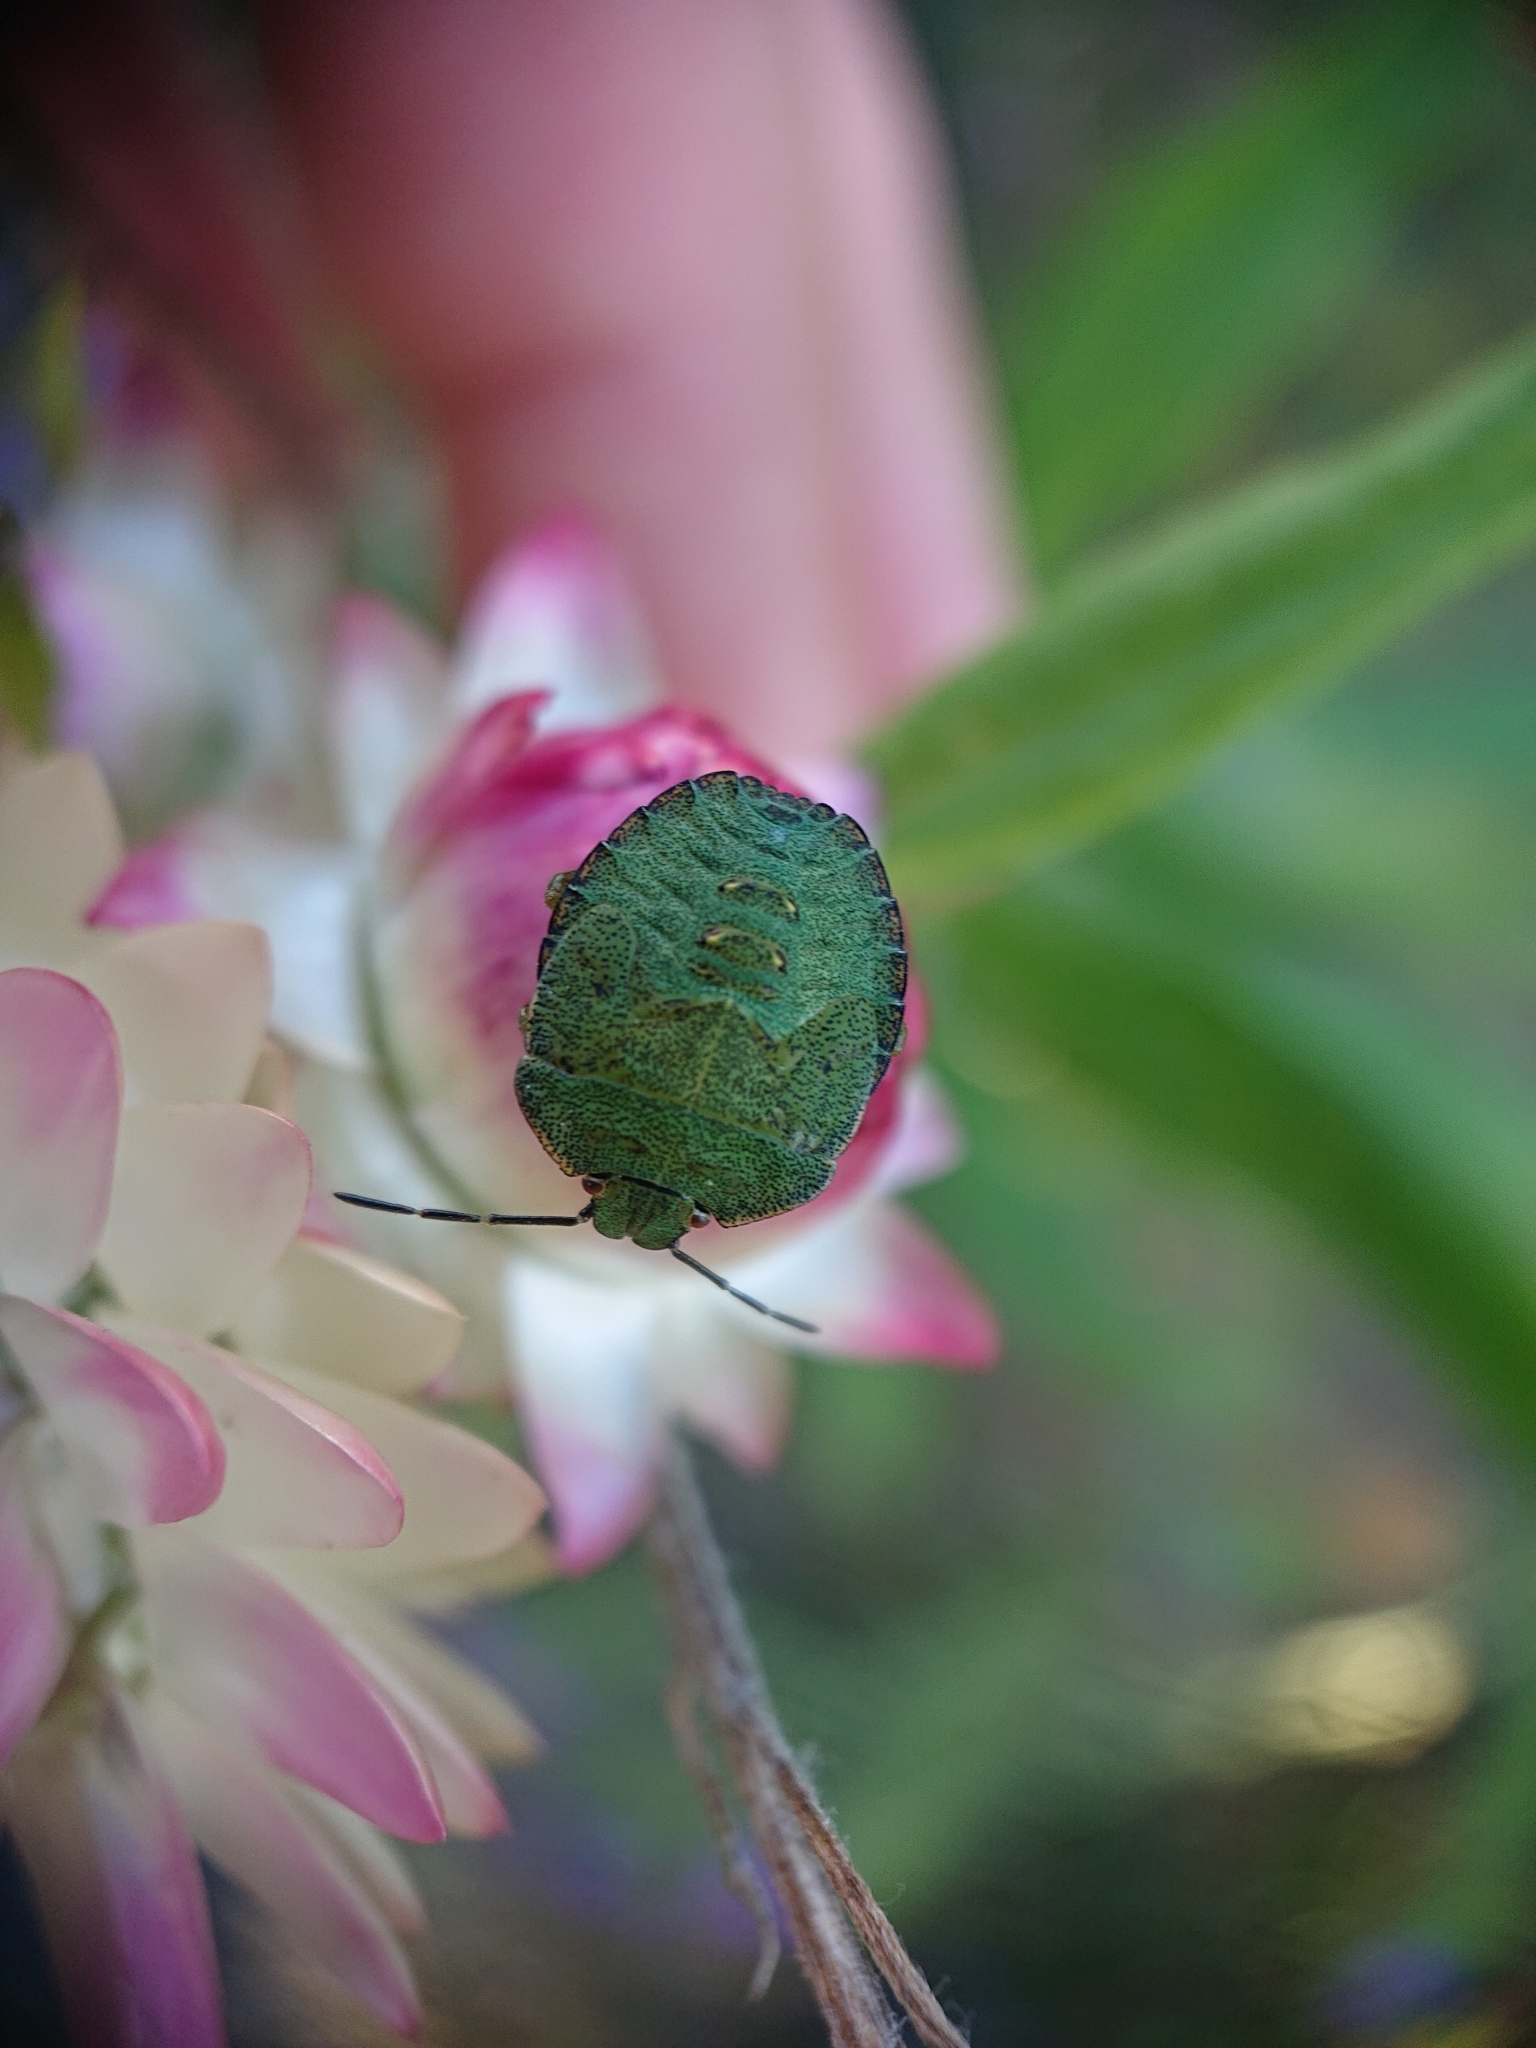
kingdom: Animalia
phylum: Arthropoda
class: Insecta
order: Hemiptera
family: Pentatomidae
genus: Palomena
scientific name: Palomena prasina
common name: Green shieldbug
